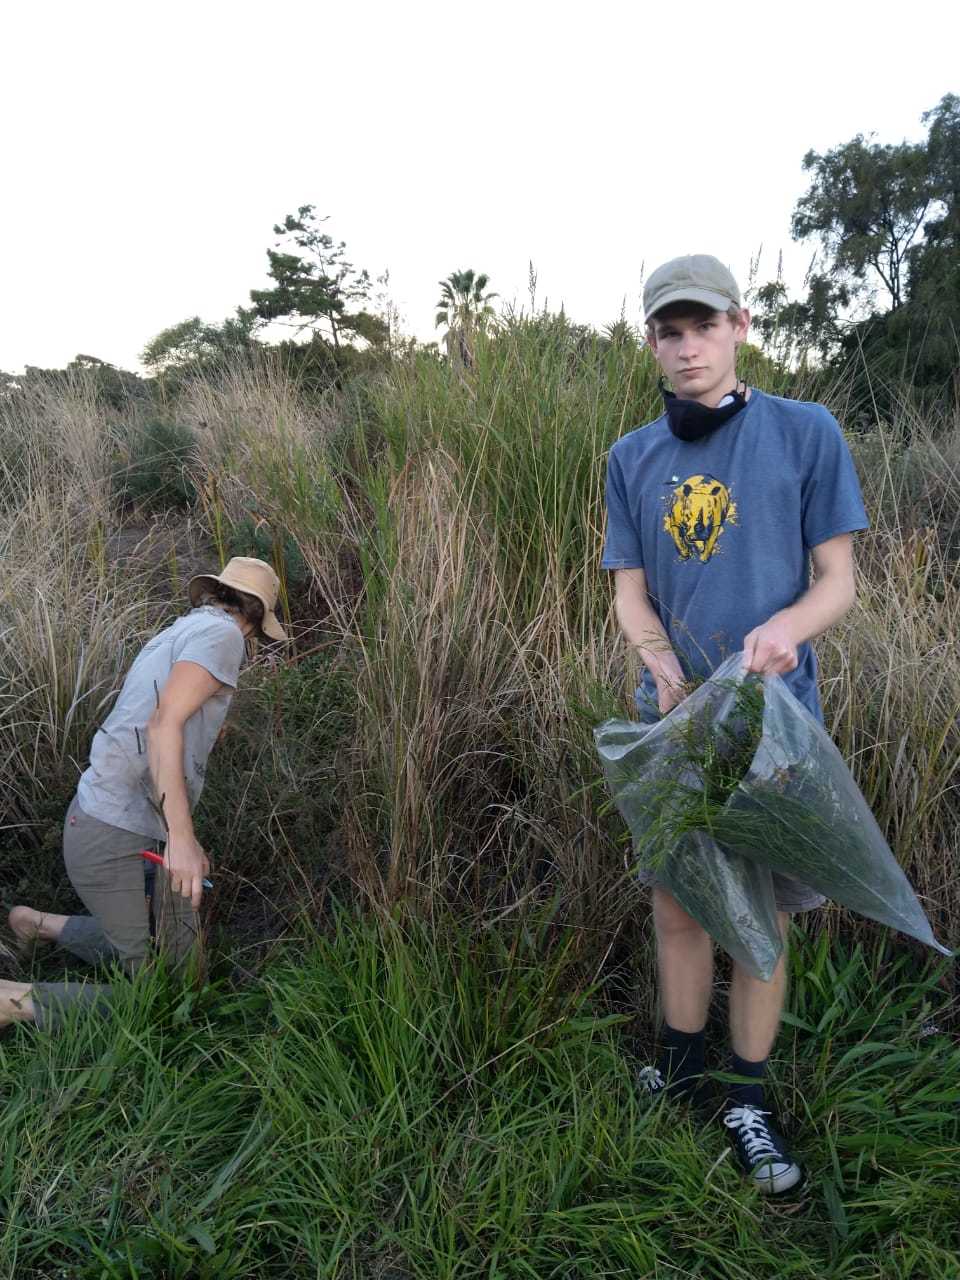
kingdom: Plantae
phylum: Tracheophyta
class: Magnoliopsida
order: Fabales
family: Fabaceae
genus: Psoralea
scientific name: Psoralea fascicularis
